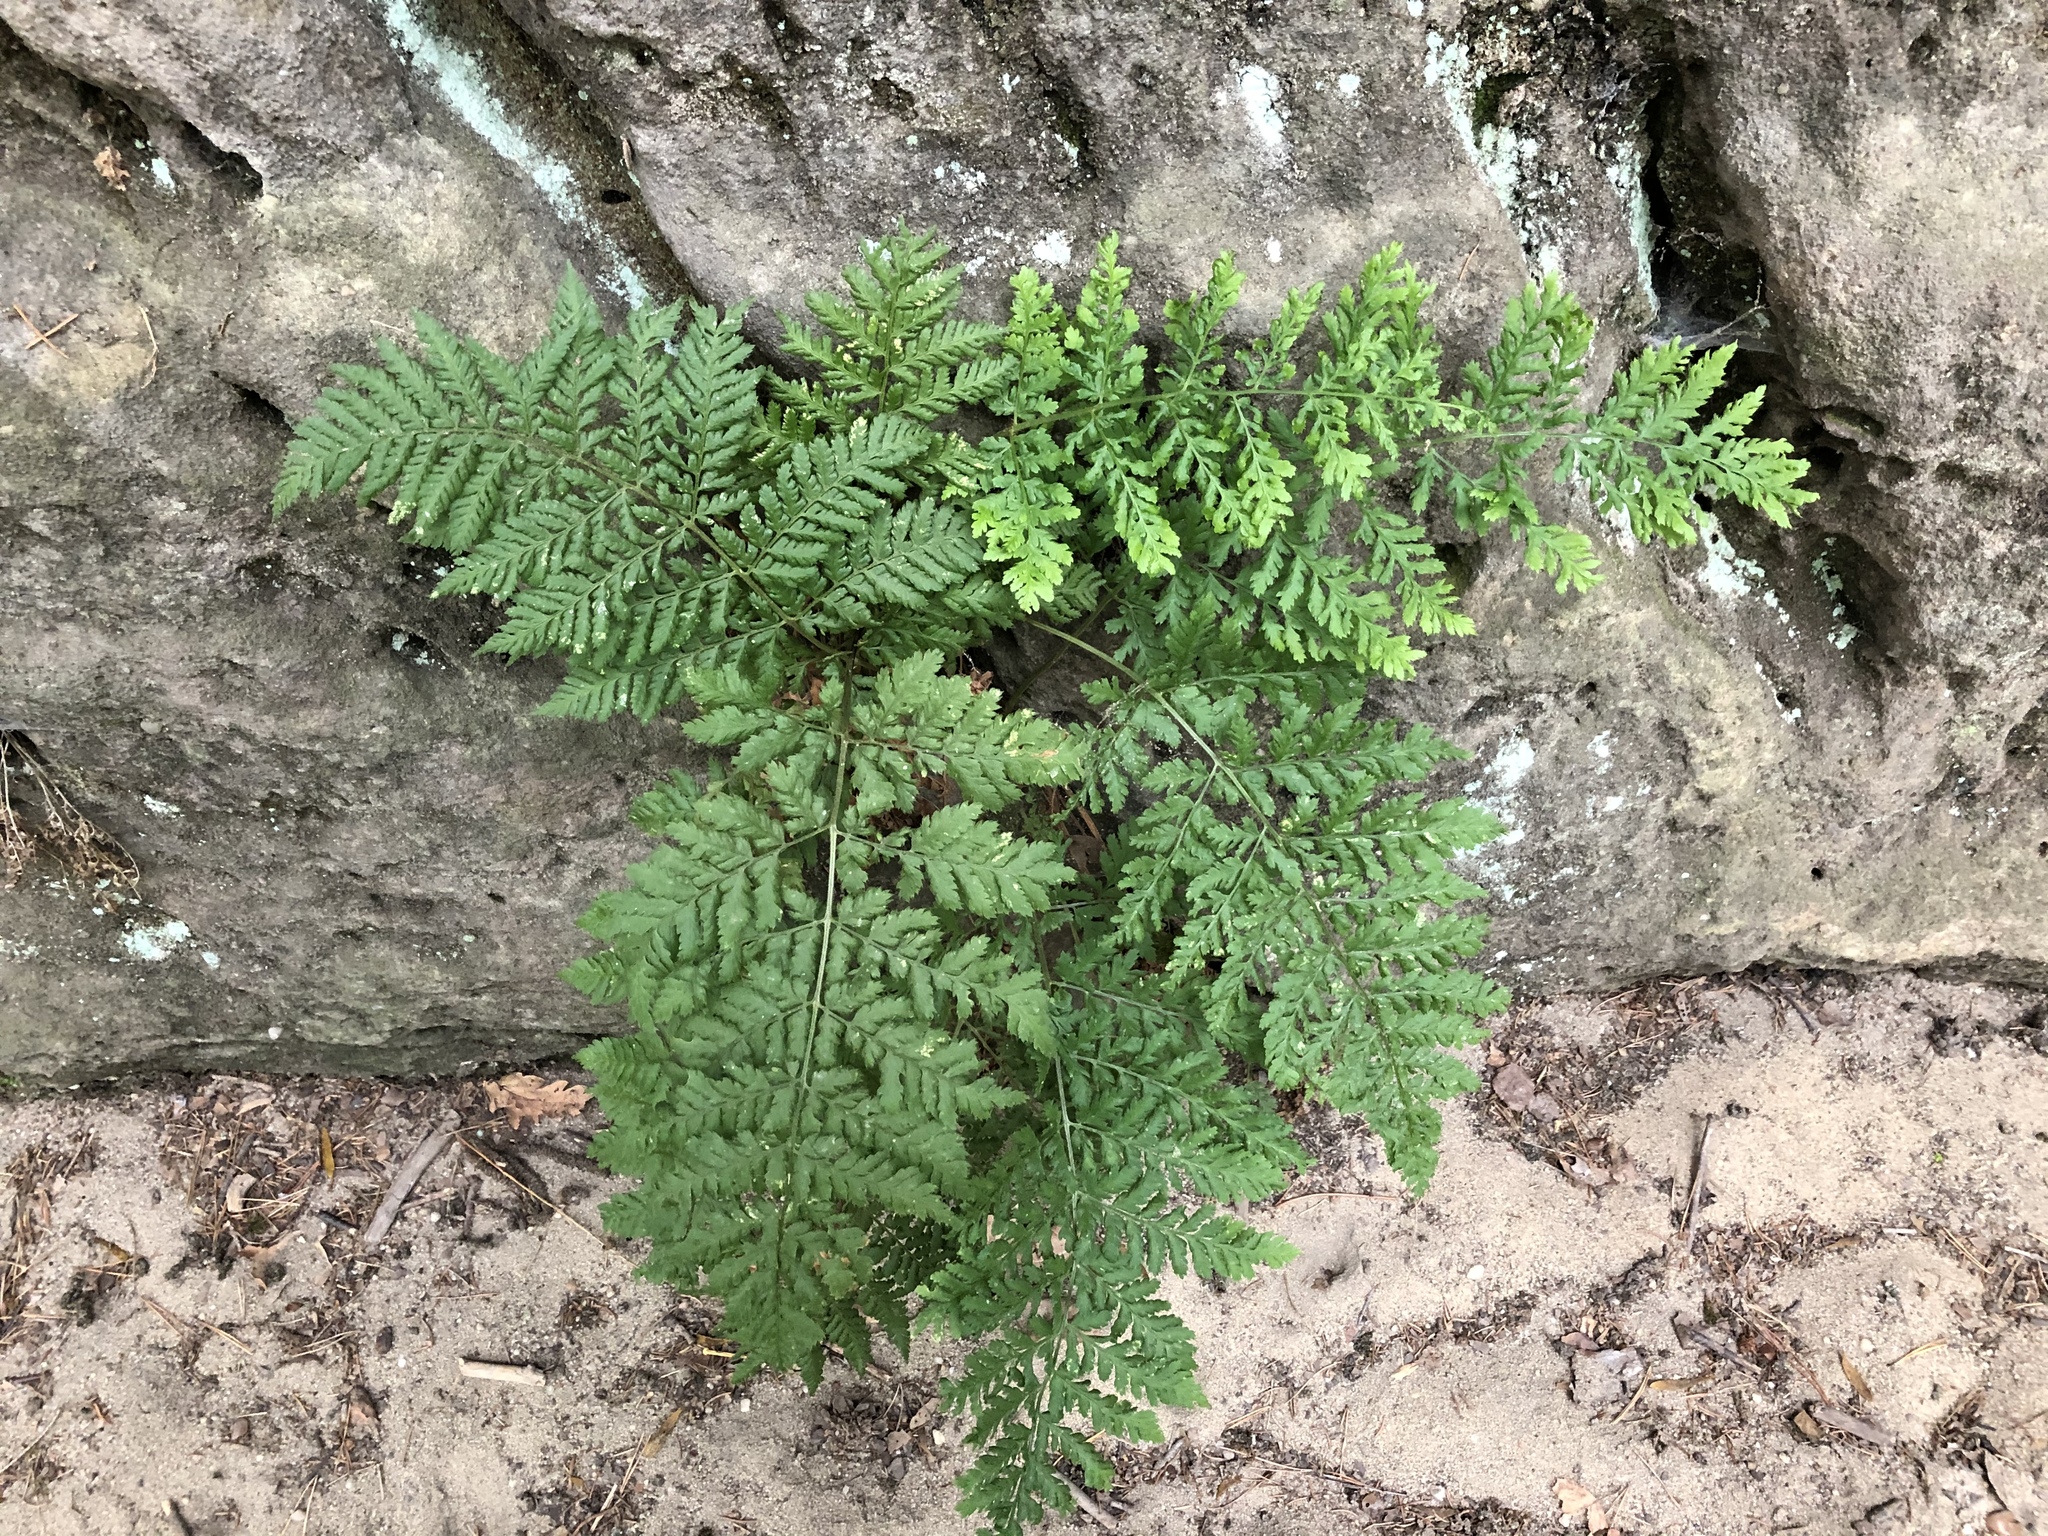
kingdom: Plantae
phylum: Tracheophyta
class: Polypodiopsida
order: Polypodiales
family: Dryopteridaceae
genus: Dryopteris
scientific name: Dryopteris dilatata
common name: Broad buckler-fern
